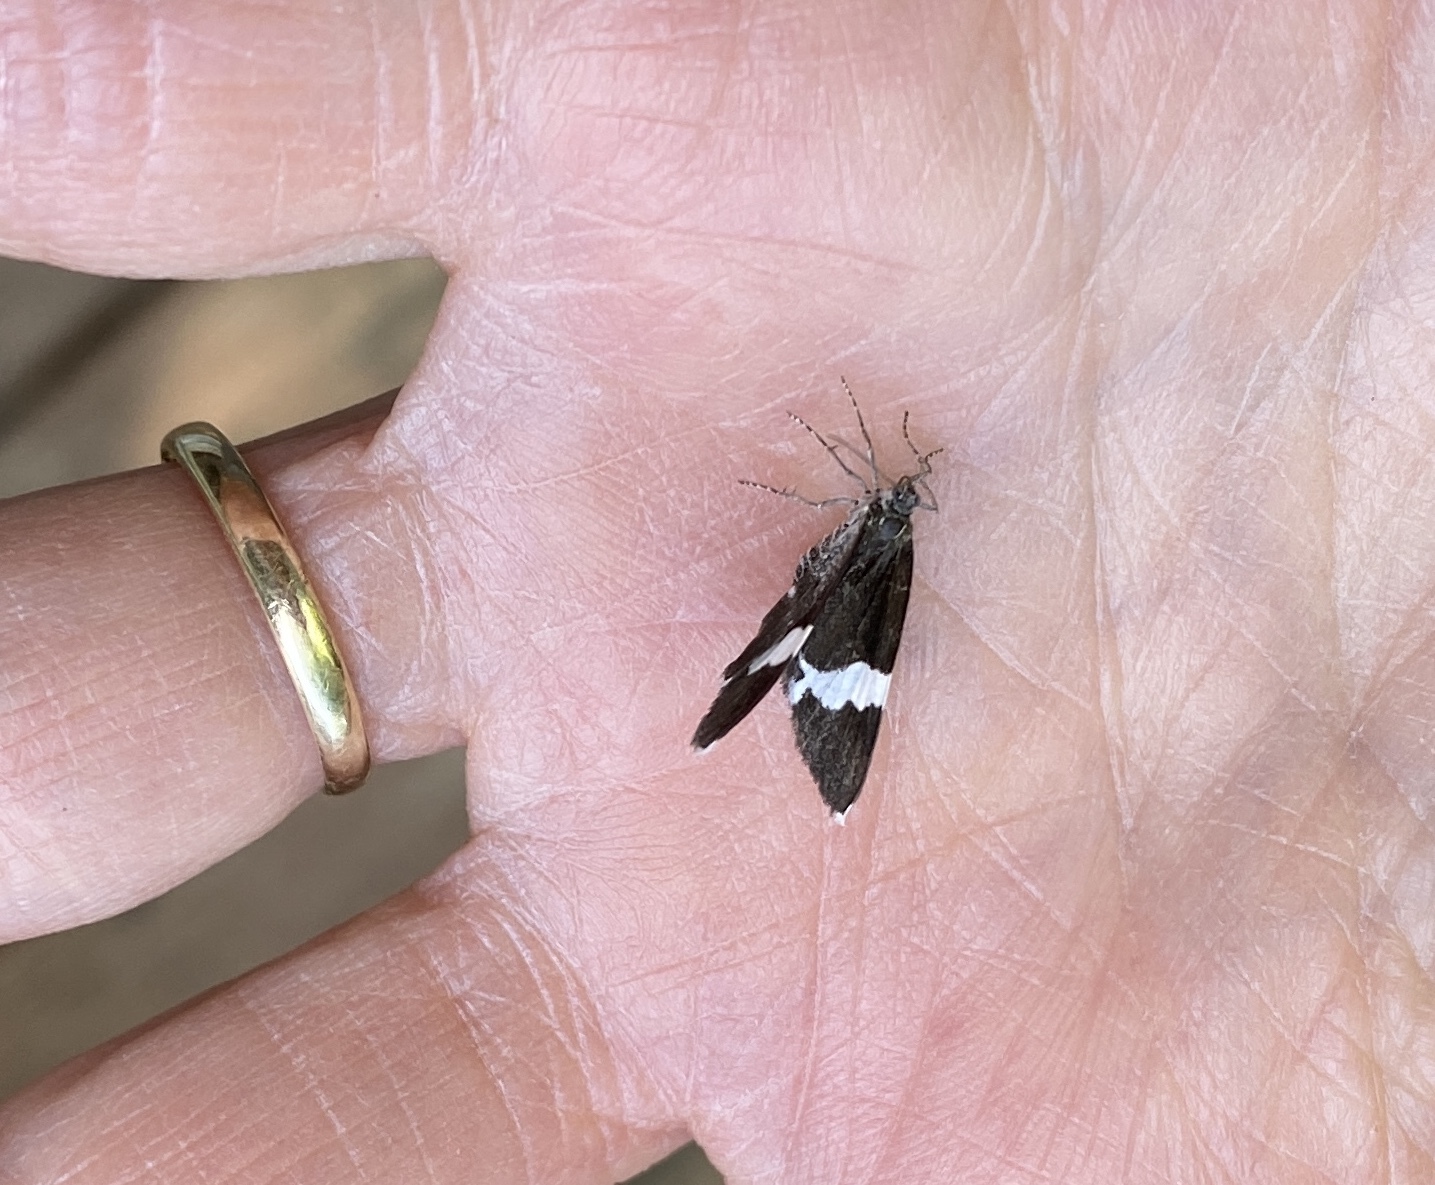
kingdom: Animalia
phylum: Arthropoda
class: Insecta
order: Lepidoptera
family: Geometridae
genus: Trichodezia
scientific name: Trichodezia albovittata
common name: White striped black
